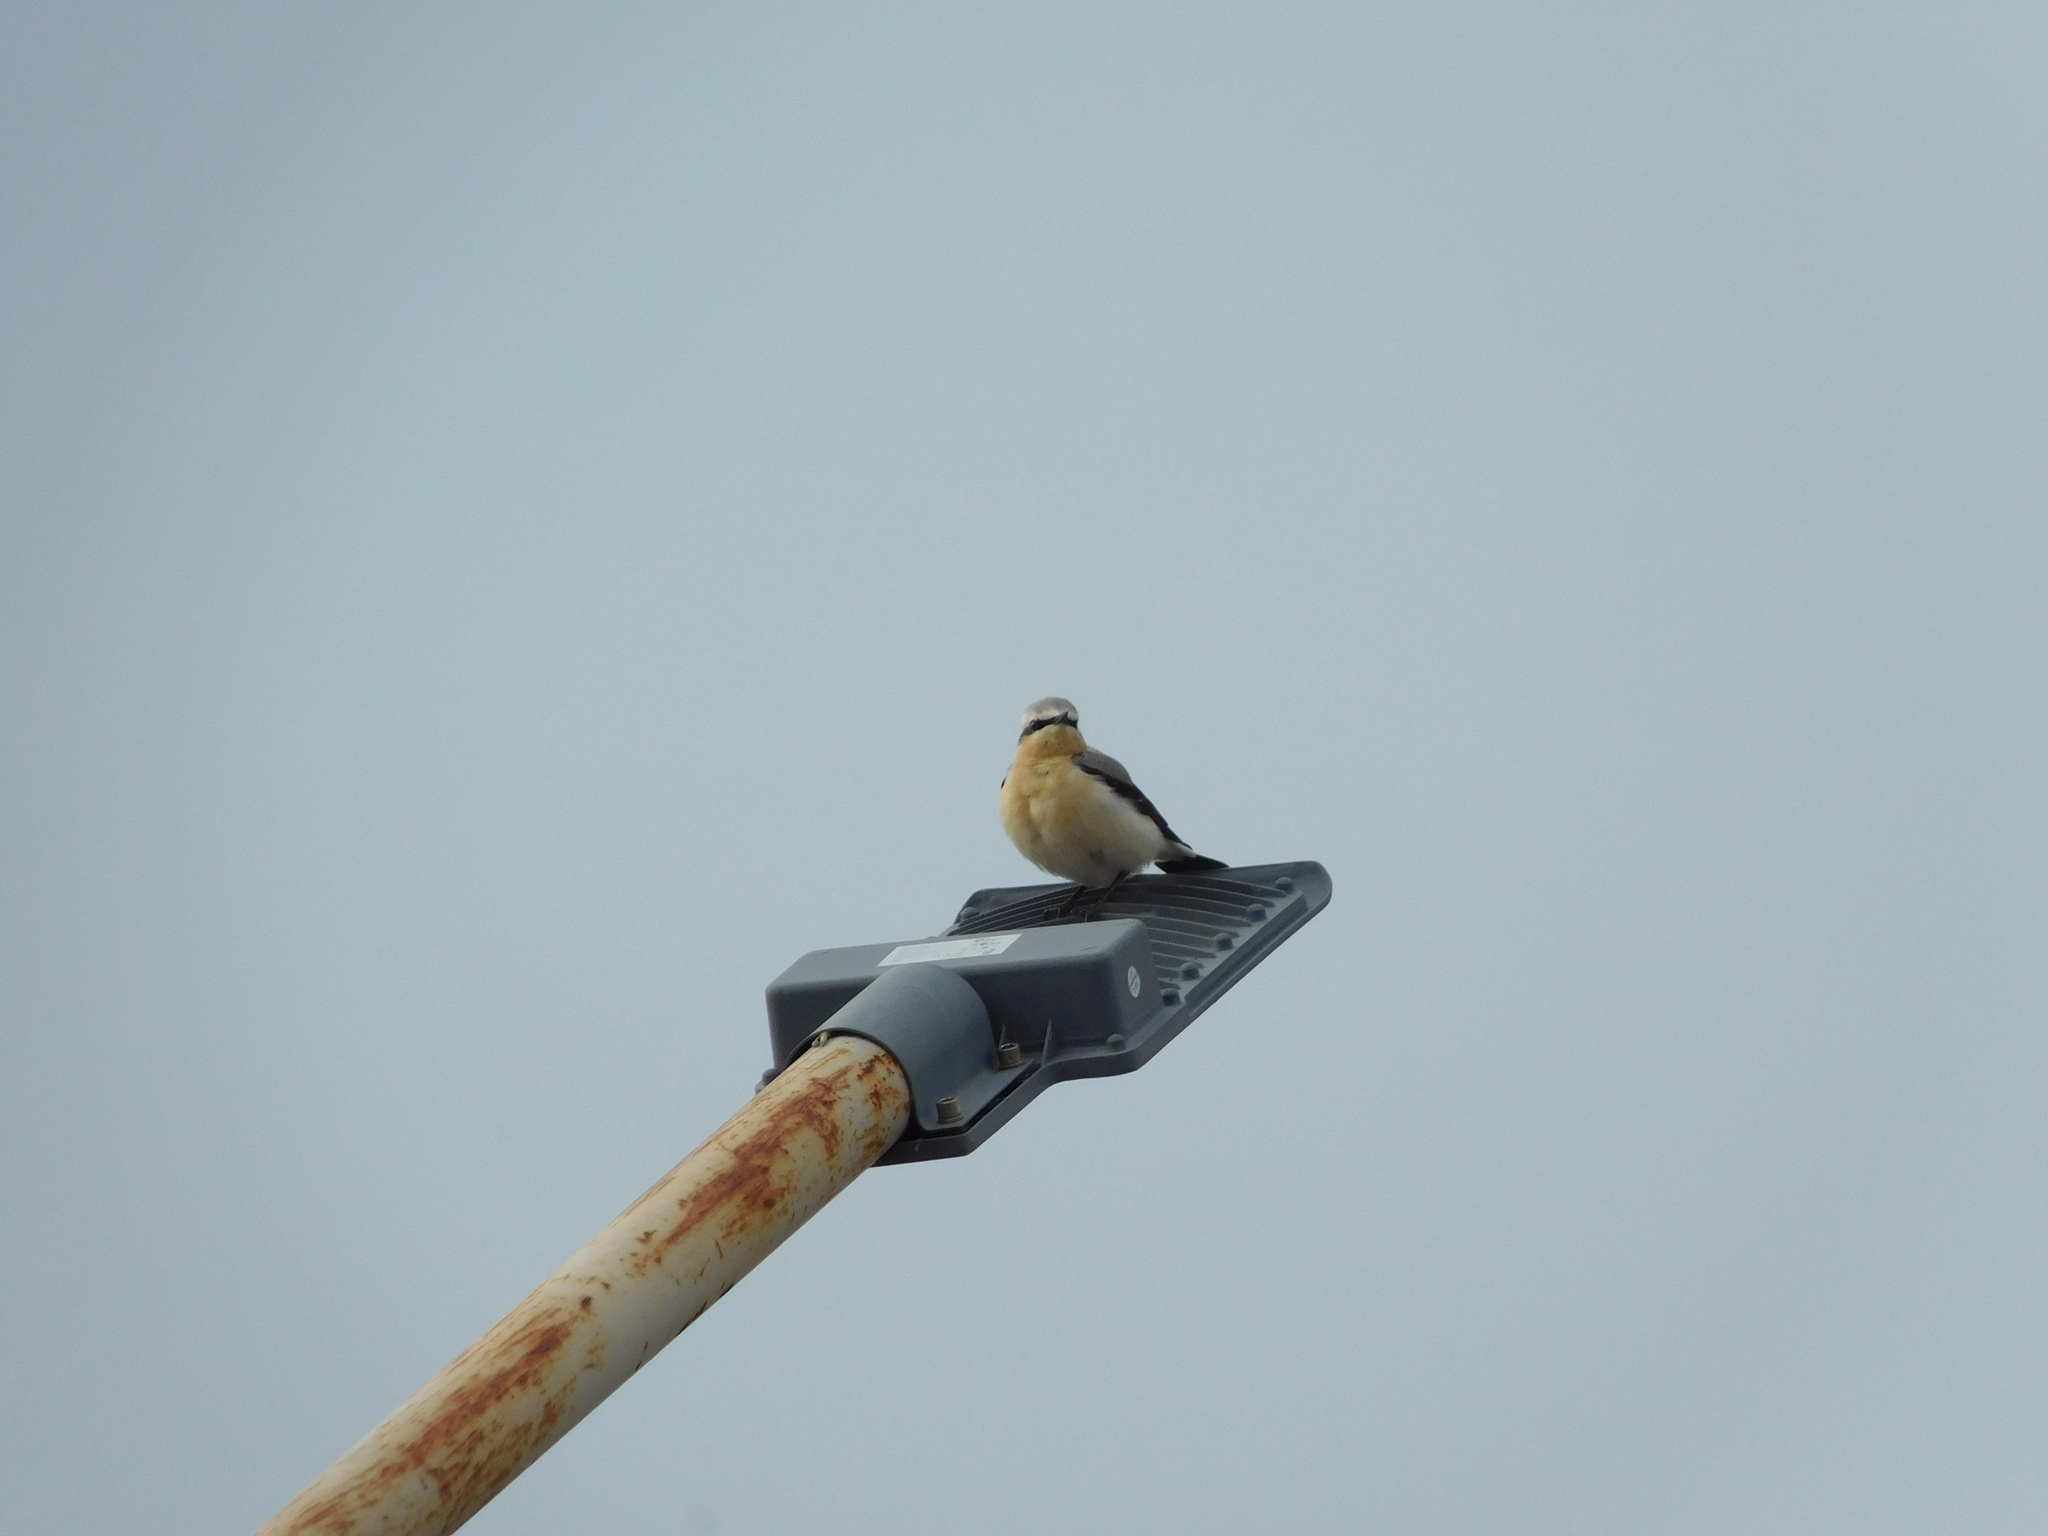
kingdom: Animalia
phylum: Chordata
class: Aves
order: Passeriformes
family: Muscicapidae
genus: Oenanthe
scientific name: Oenanthe oenanthe
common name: Northern wheatear
